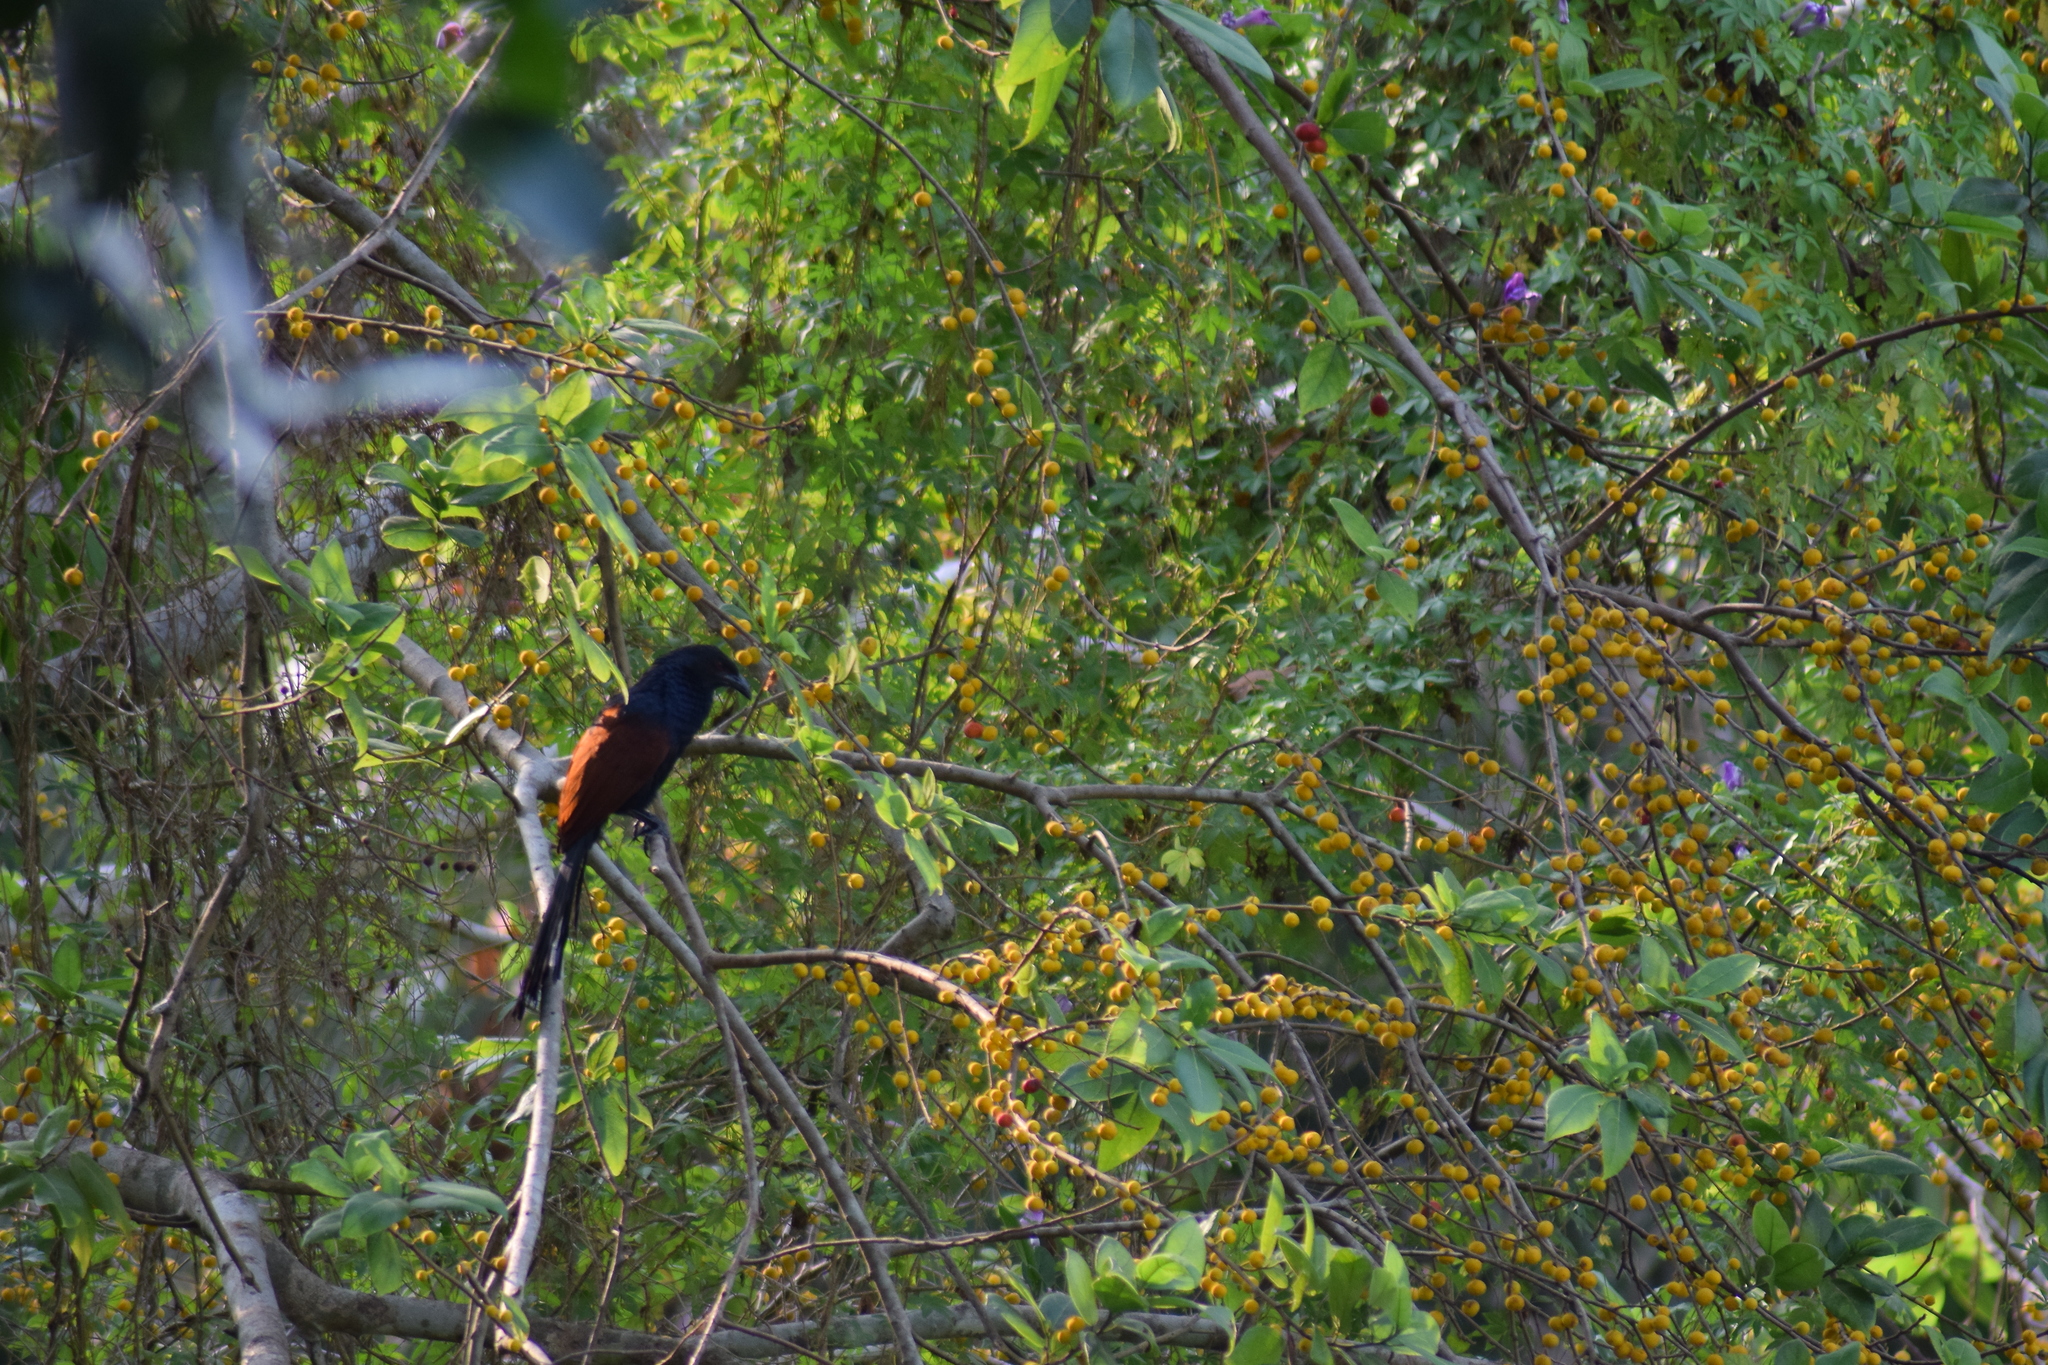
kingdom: Animalia
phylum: Chordata
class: Aves
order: Cuculiformes
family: Cuculidae
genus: Centropus
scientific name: Centropus sinensis
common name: Greater coucal
